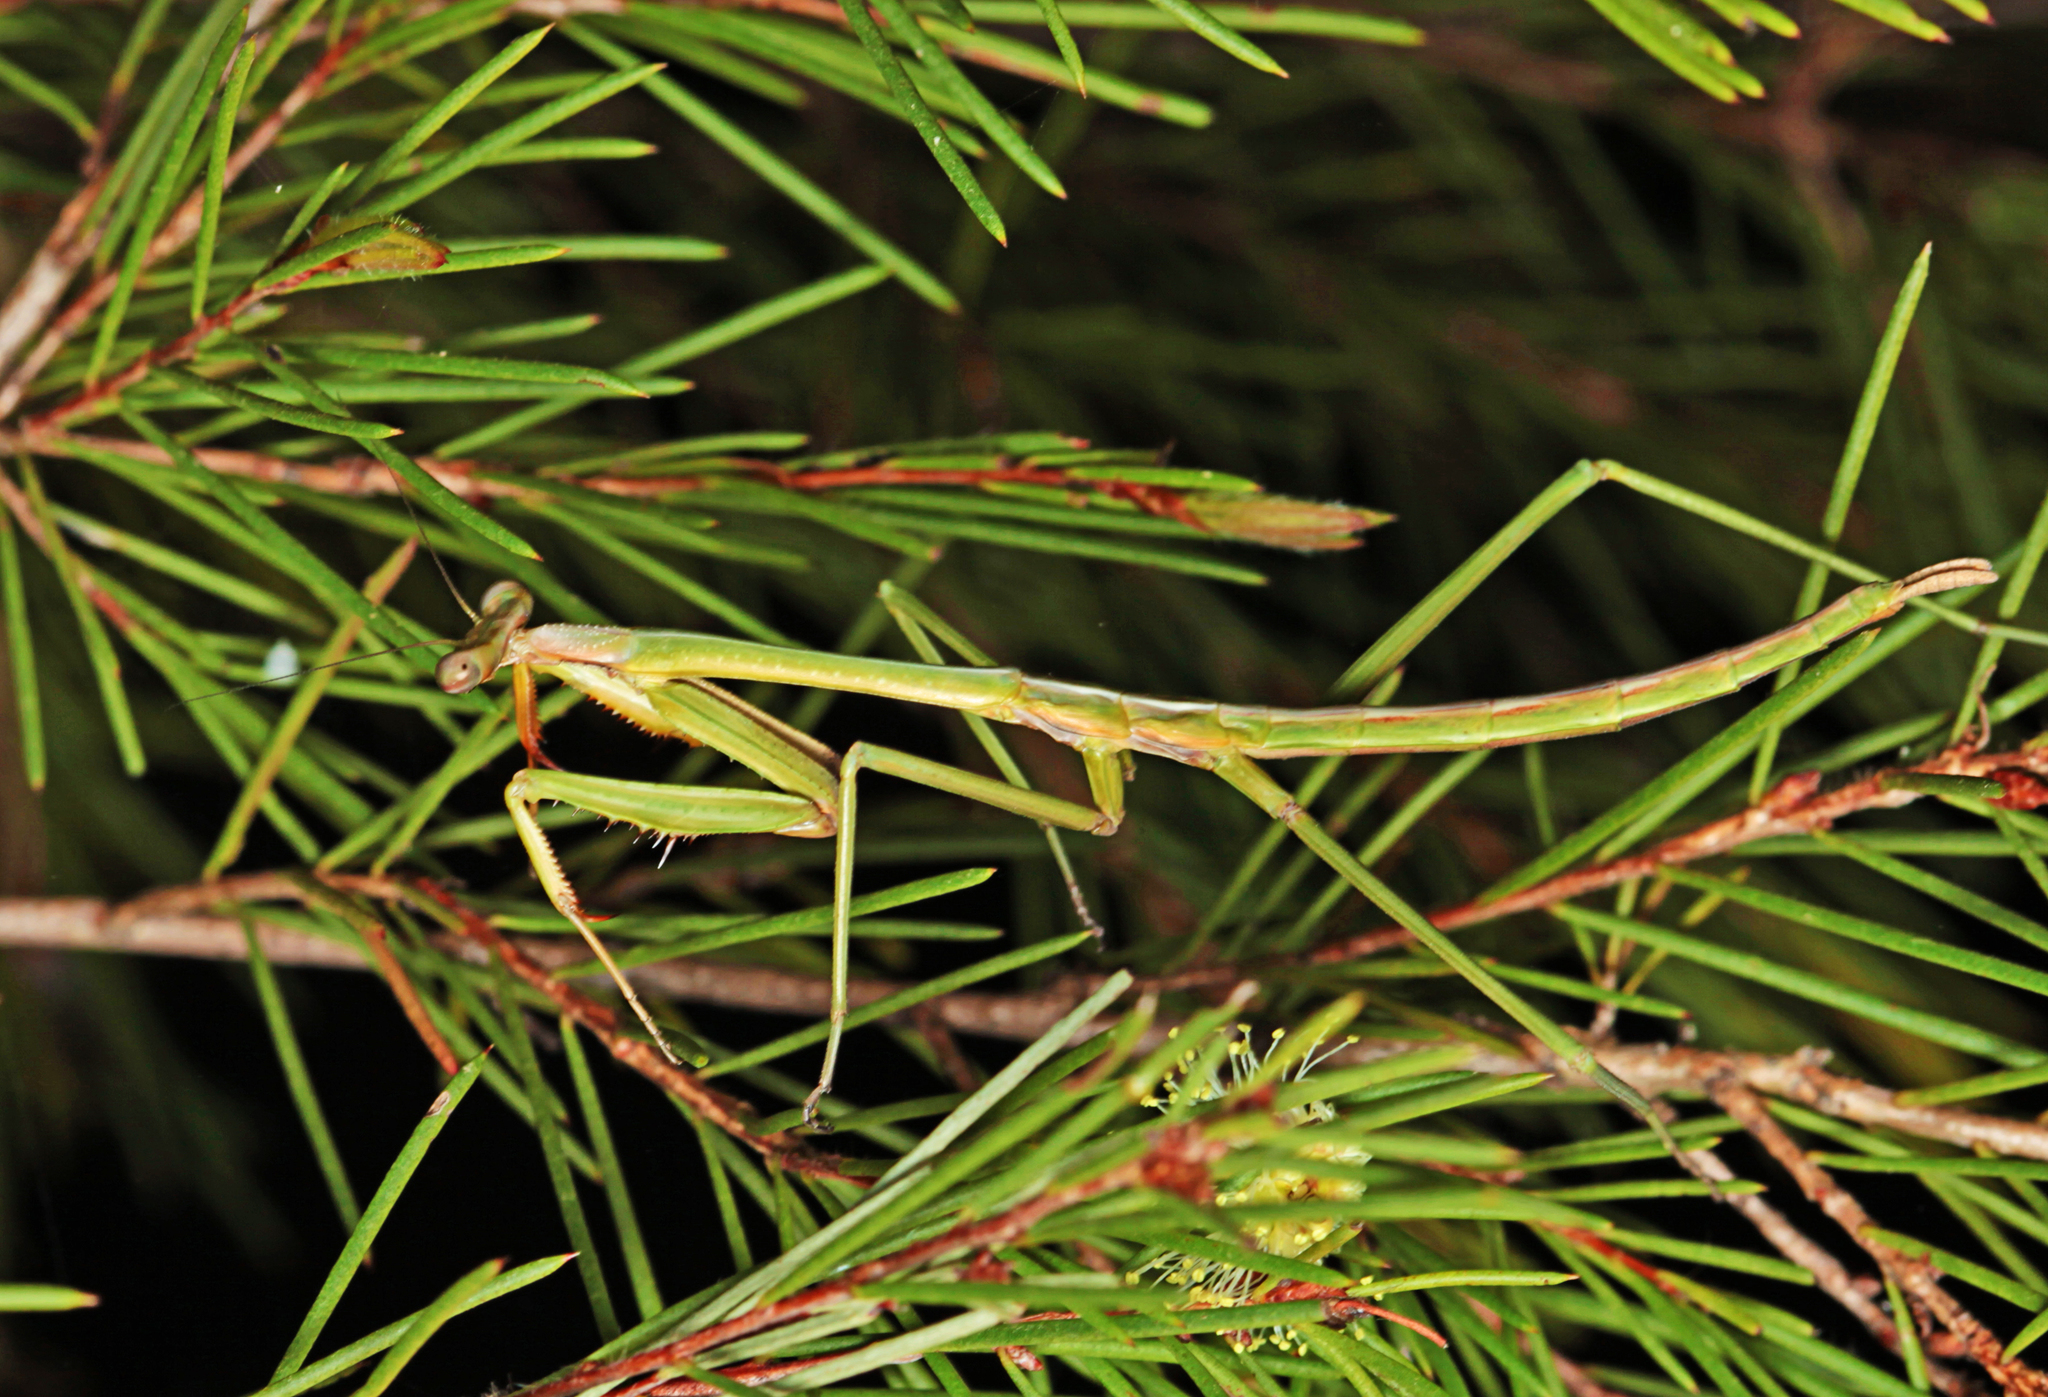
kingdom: Animalia
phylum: Arthropoda
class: Insecta
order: Mantodea
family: Mantidae
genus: Archimantis
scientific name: Archimantis latistyla
